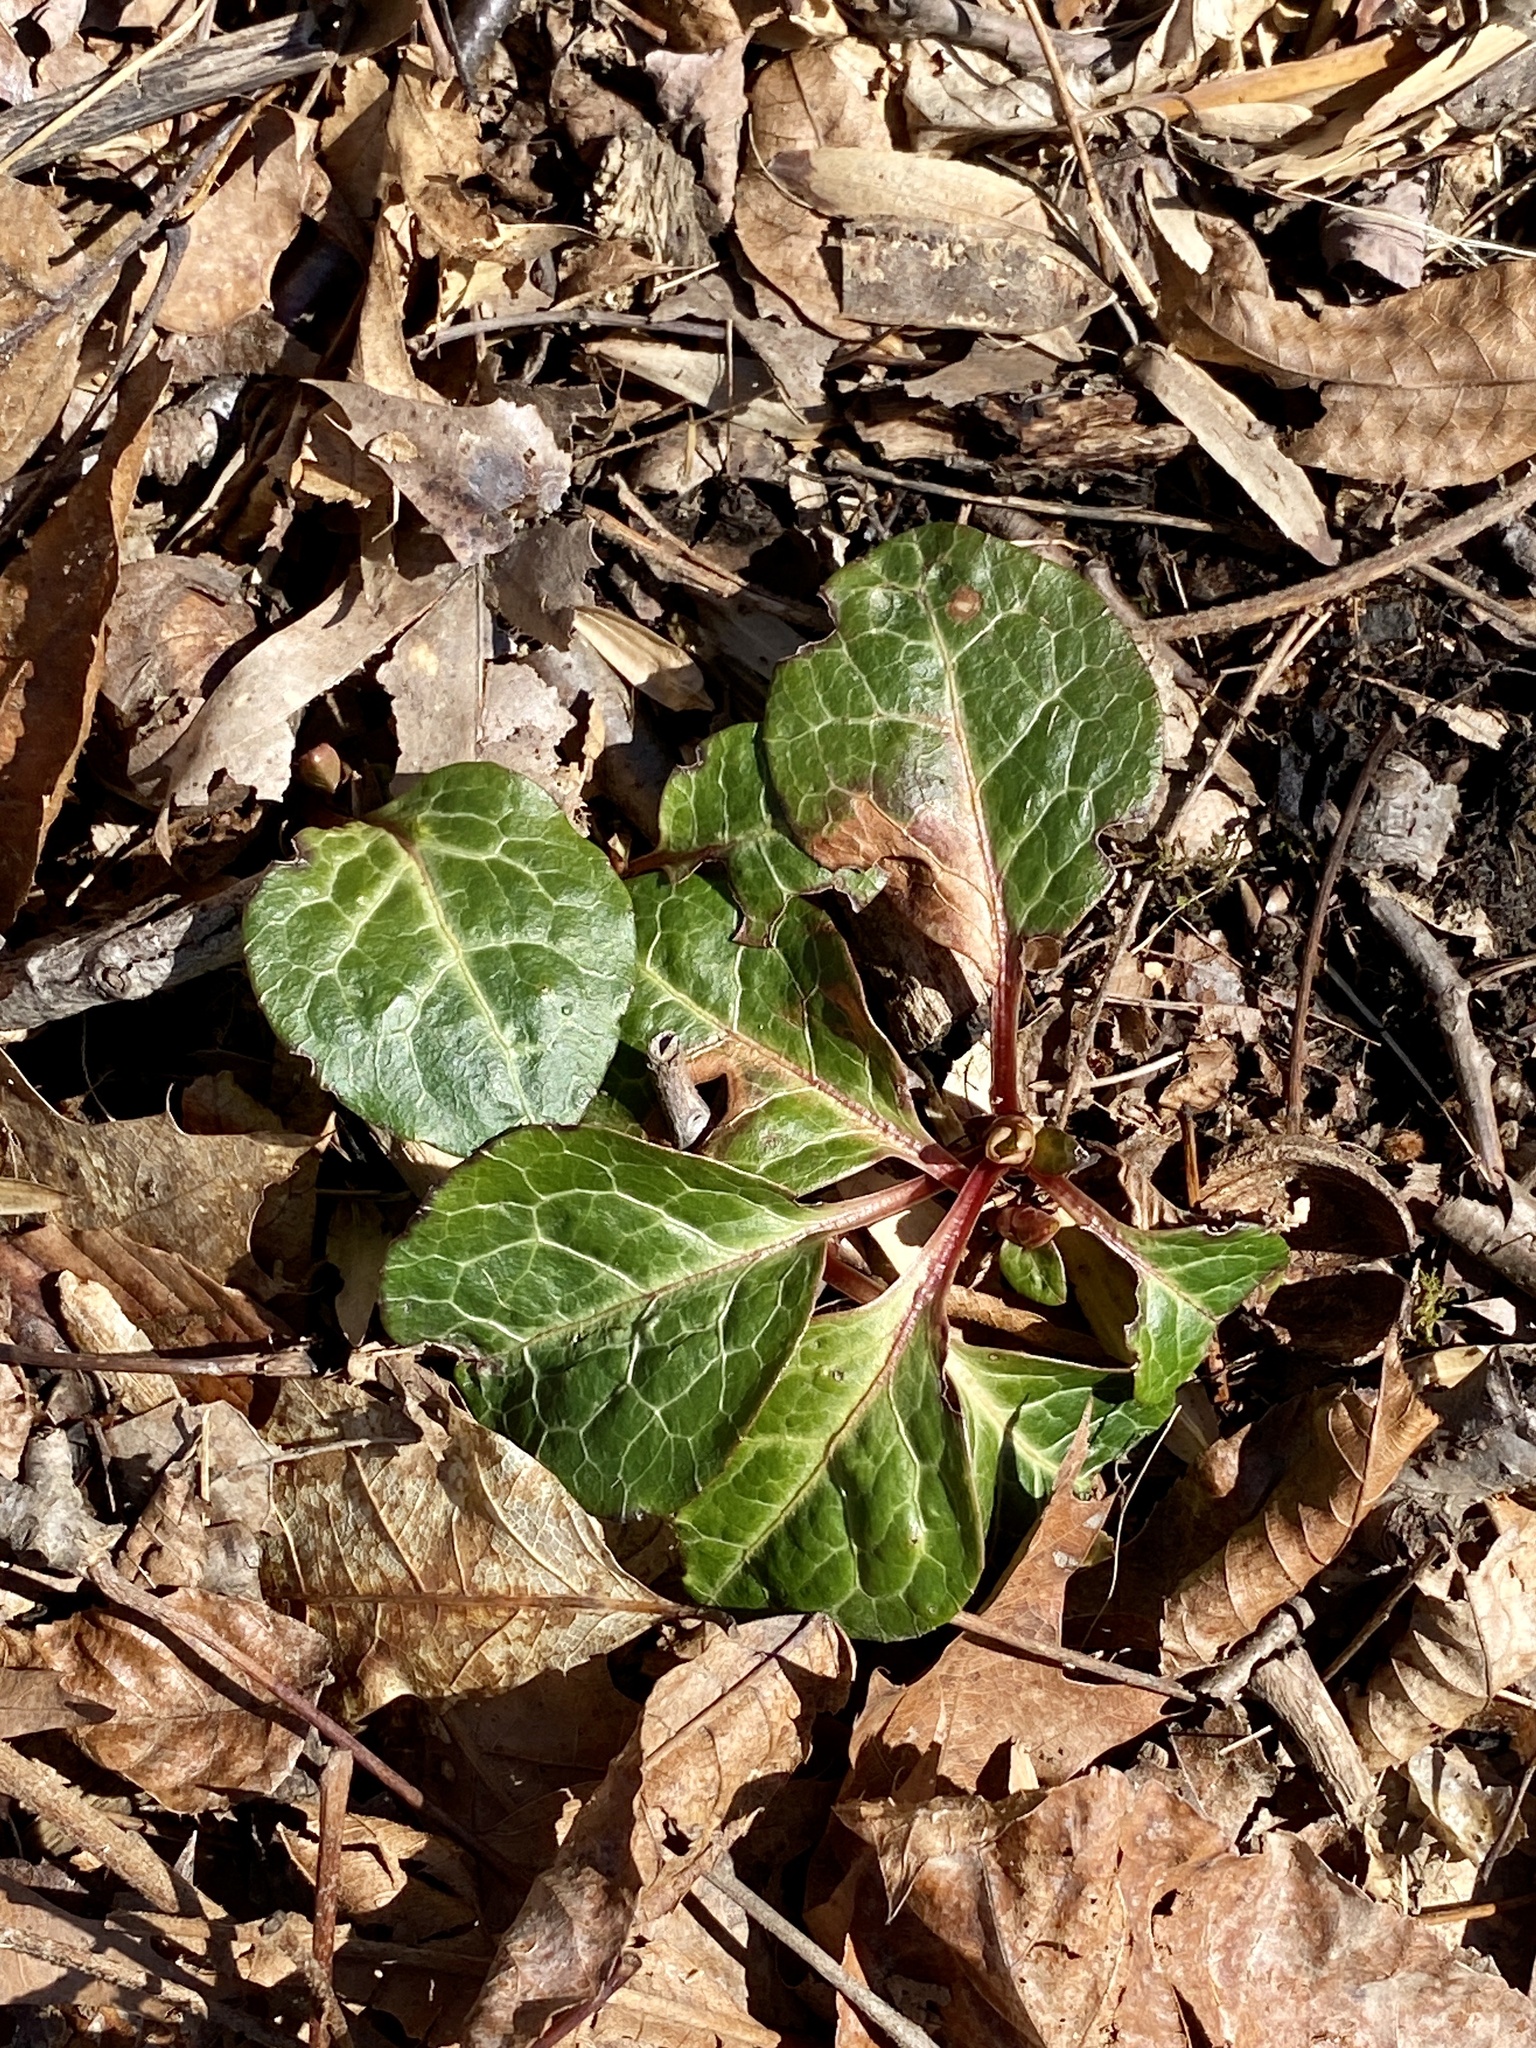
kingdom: Plantae
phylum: Tracheophyta
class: Magnoliopsida
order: Ericales
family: Ericaceae
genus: Pyrola
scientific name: Pyrola americana
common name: American wintergreen
